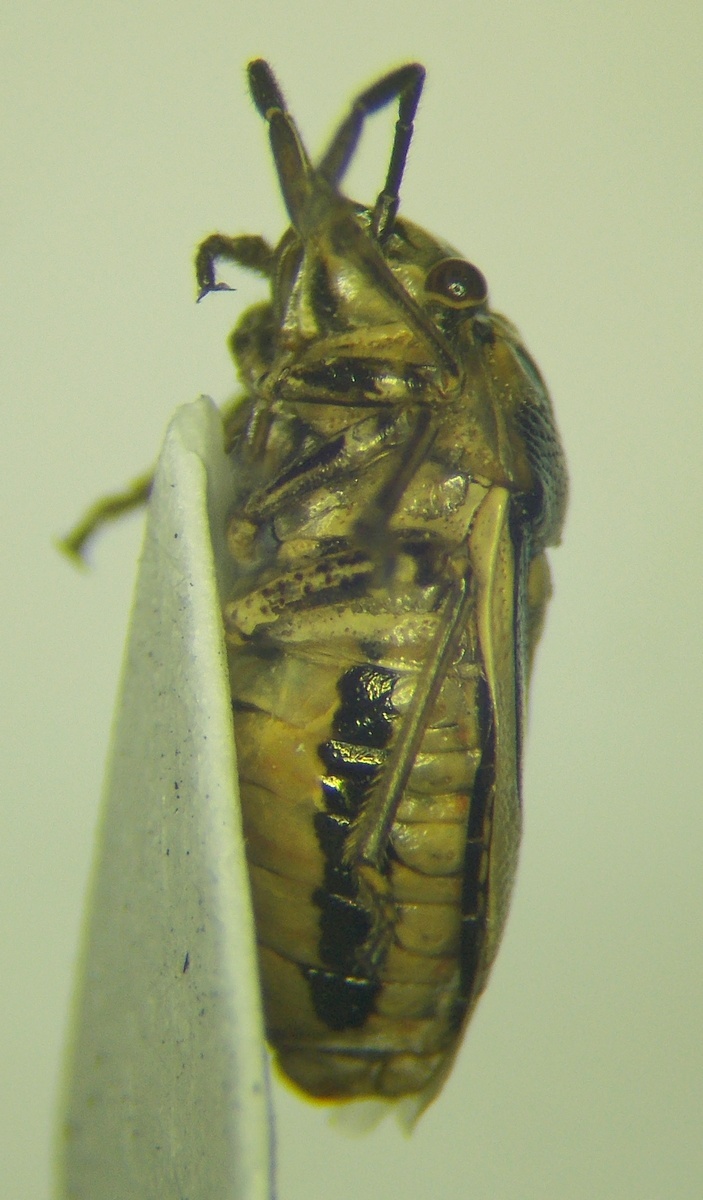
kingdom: Animalia
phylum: Arthropoda
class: Insecta
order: Hemiptera
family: Pentatomidae
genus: Bagrada
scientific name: Bagrada stolida
